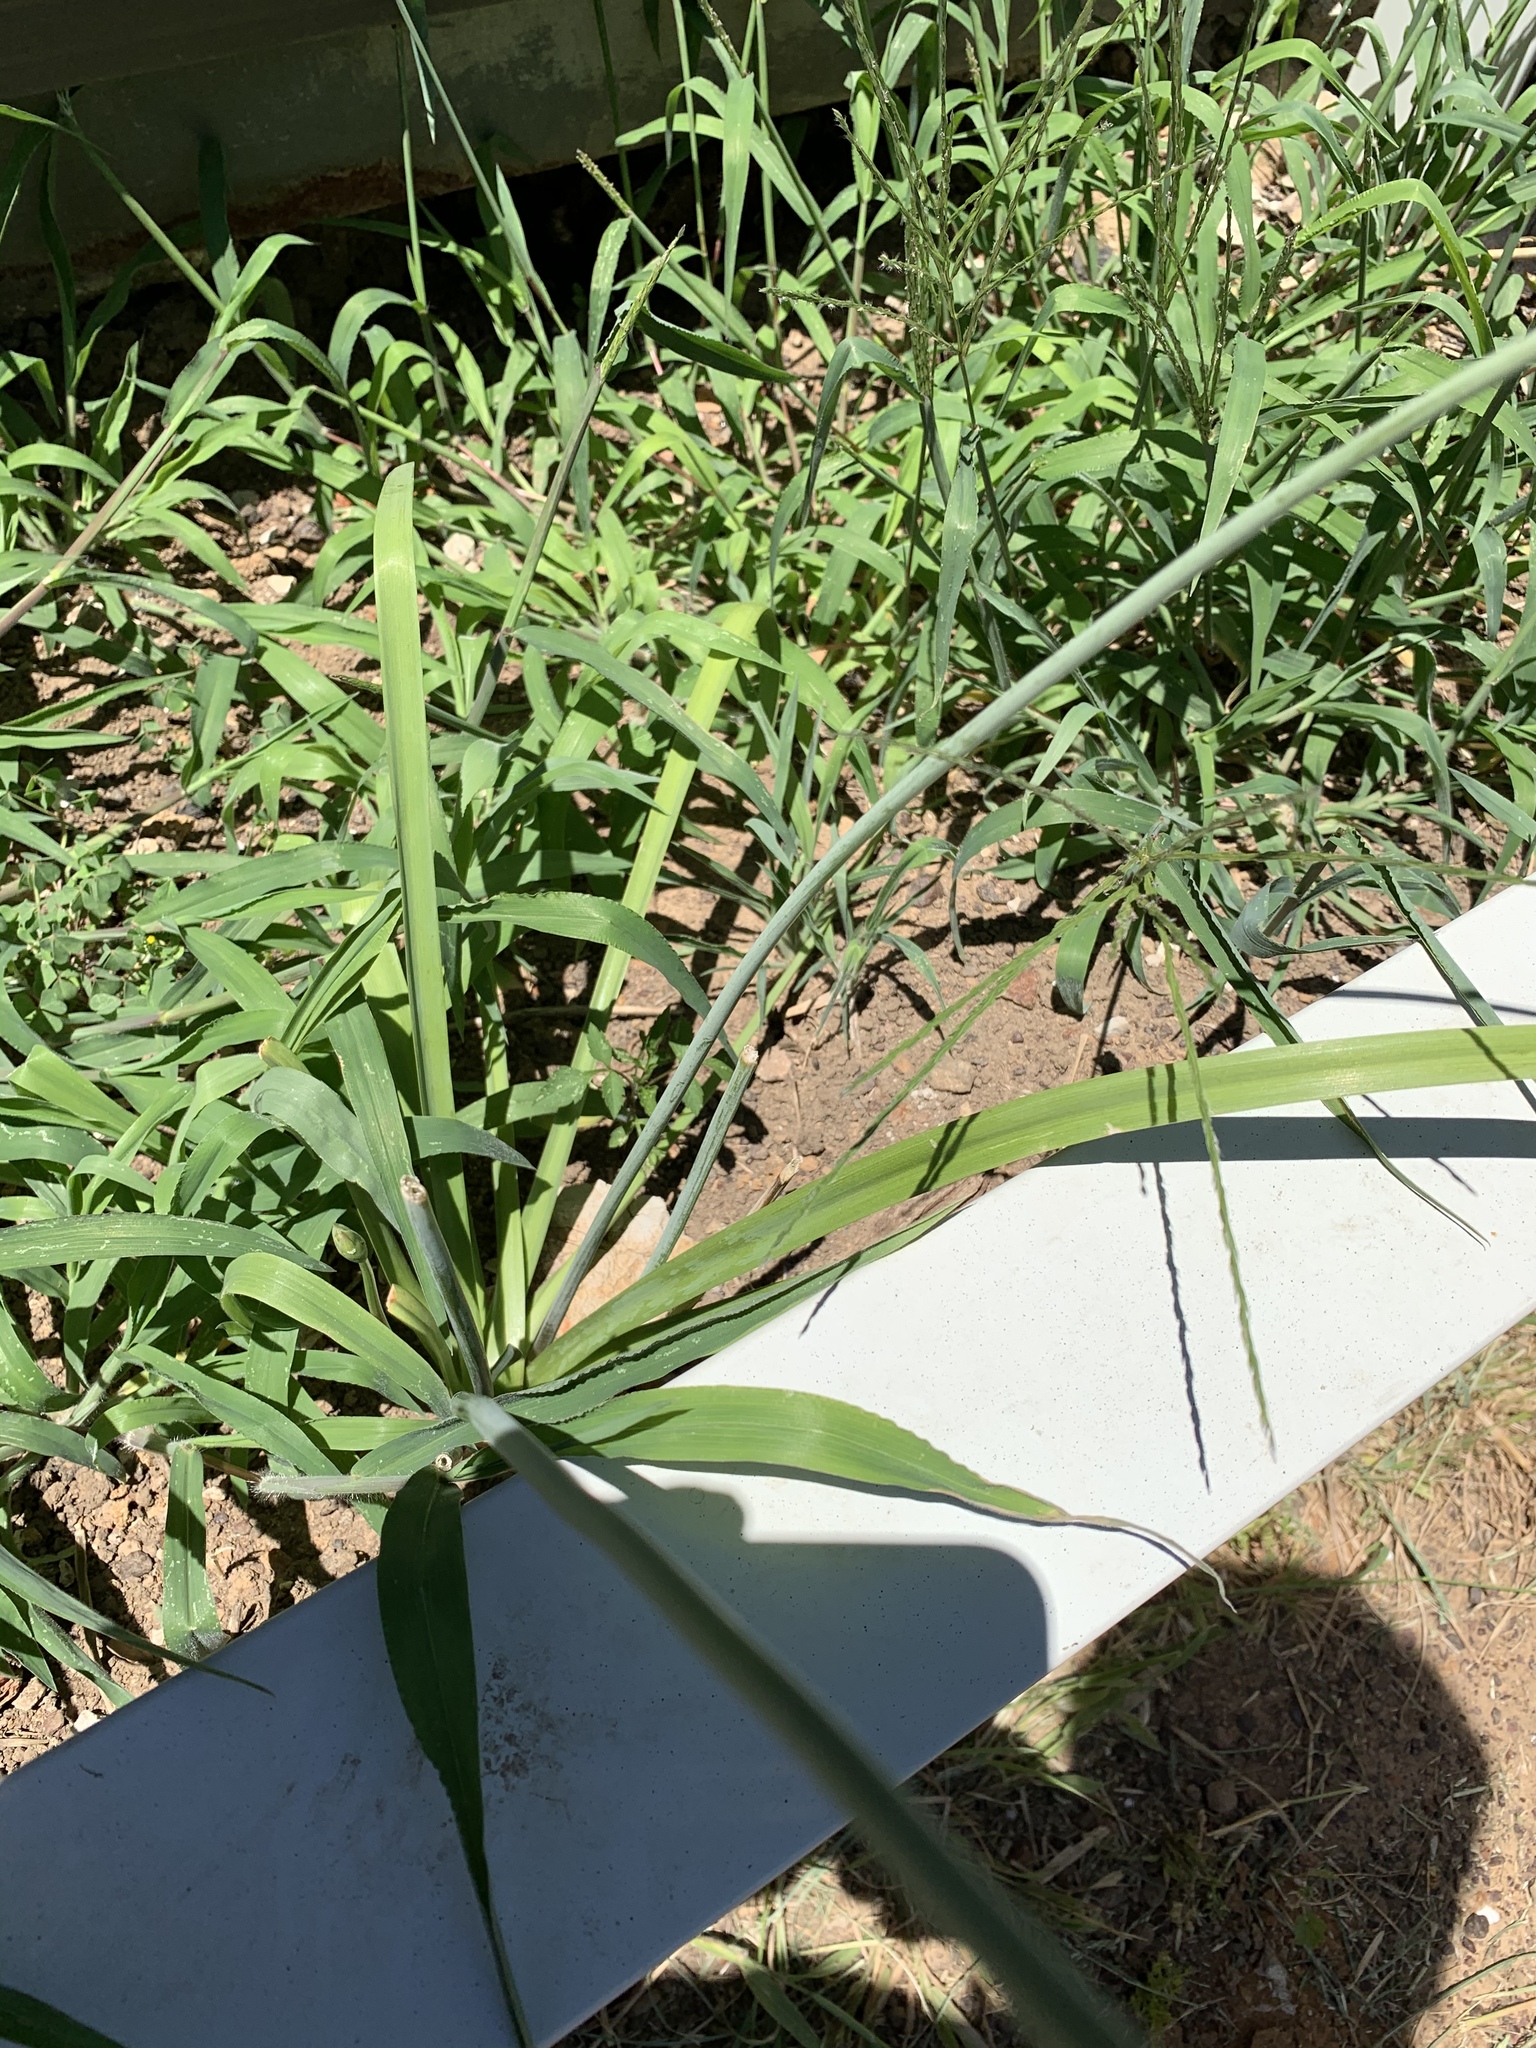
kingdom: Plantae
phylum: Tracheophyta
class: Liliopsida
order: Asparagales
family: Amaryllidaceae
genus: Nothoscordum
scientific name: Nothoscordum gracile
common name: Slender false garlic
